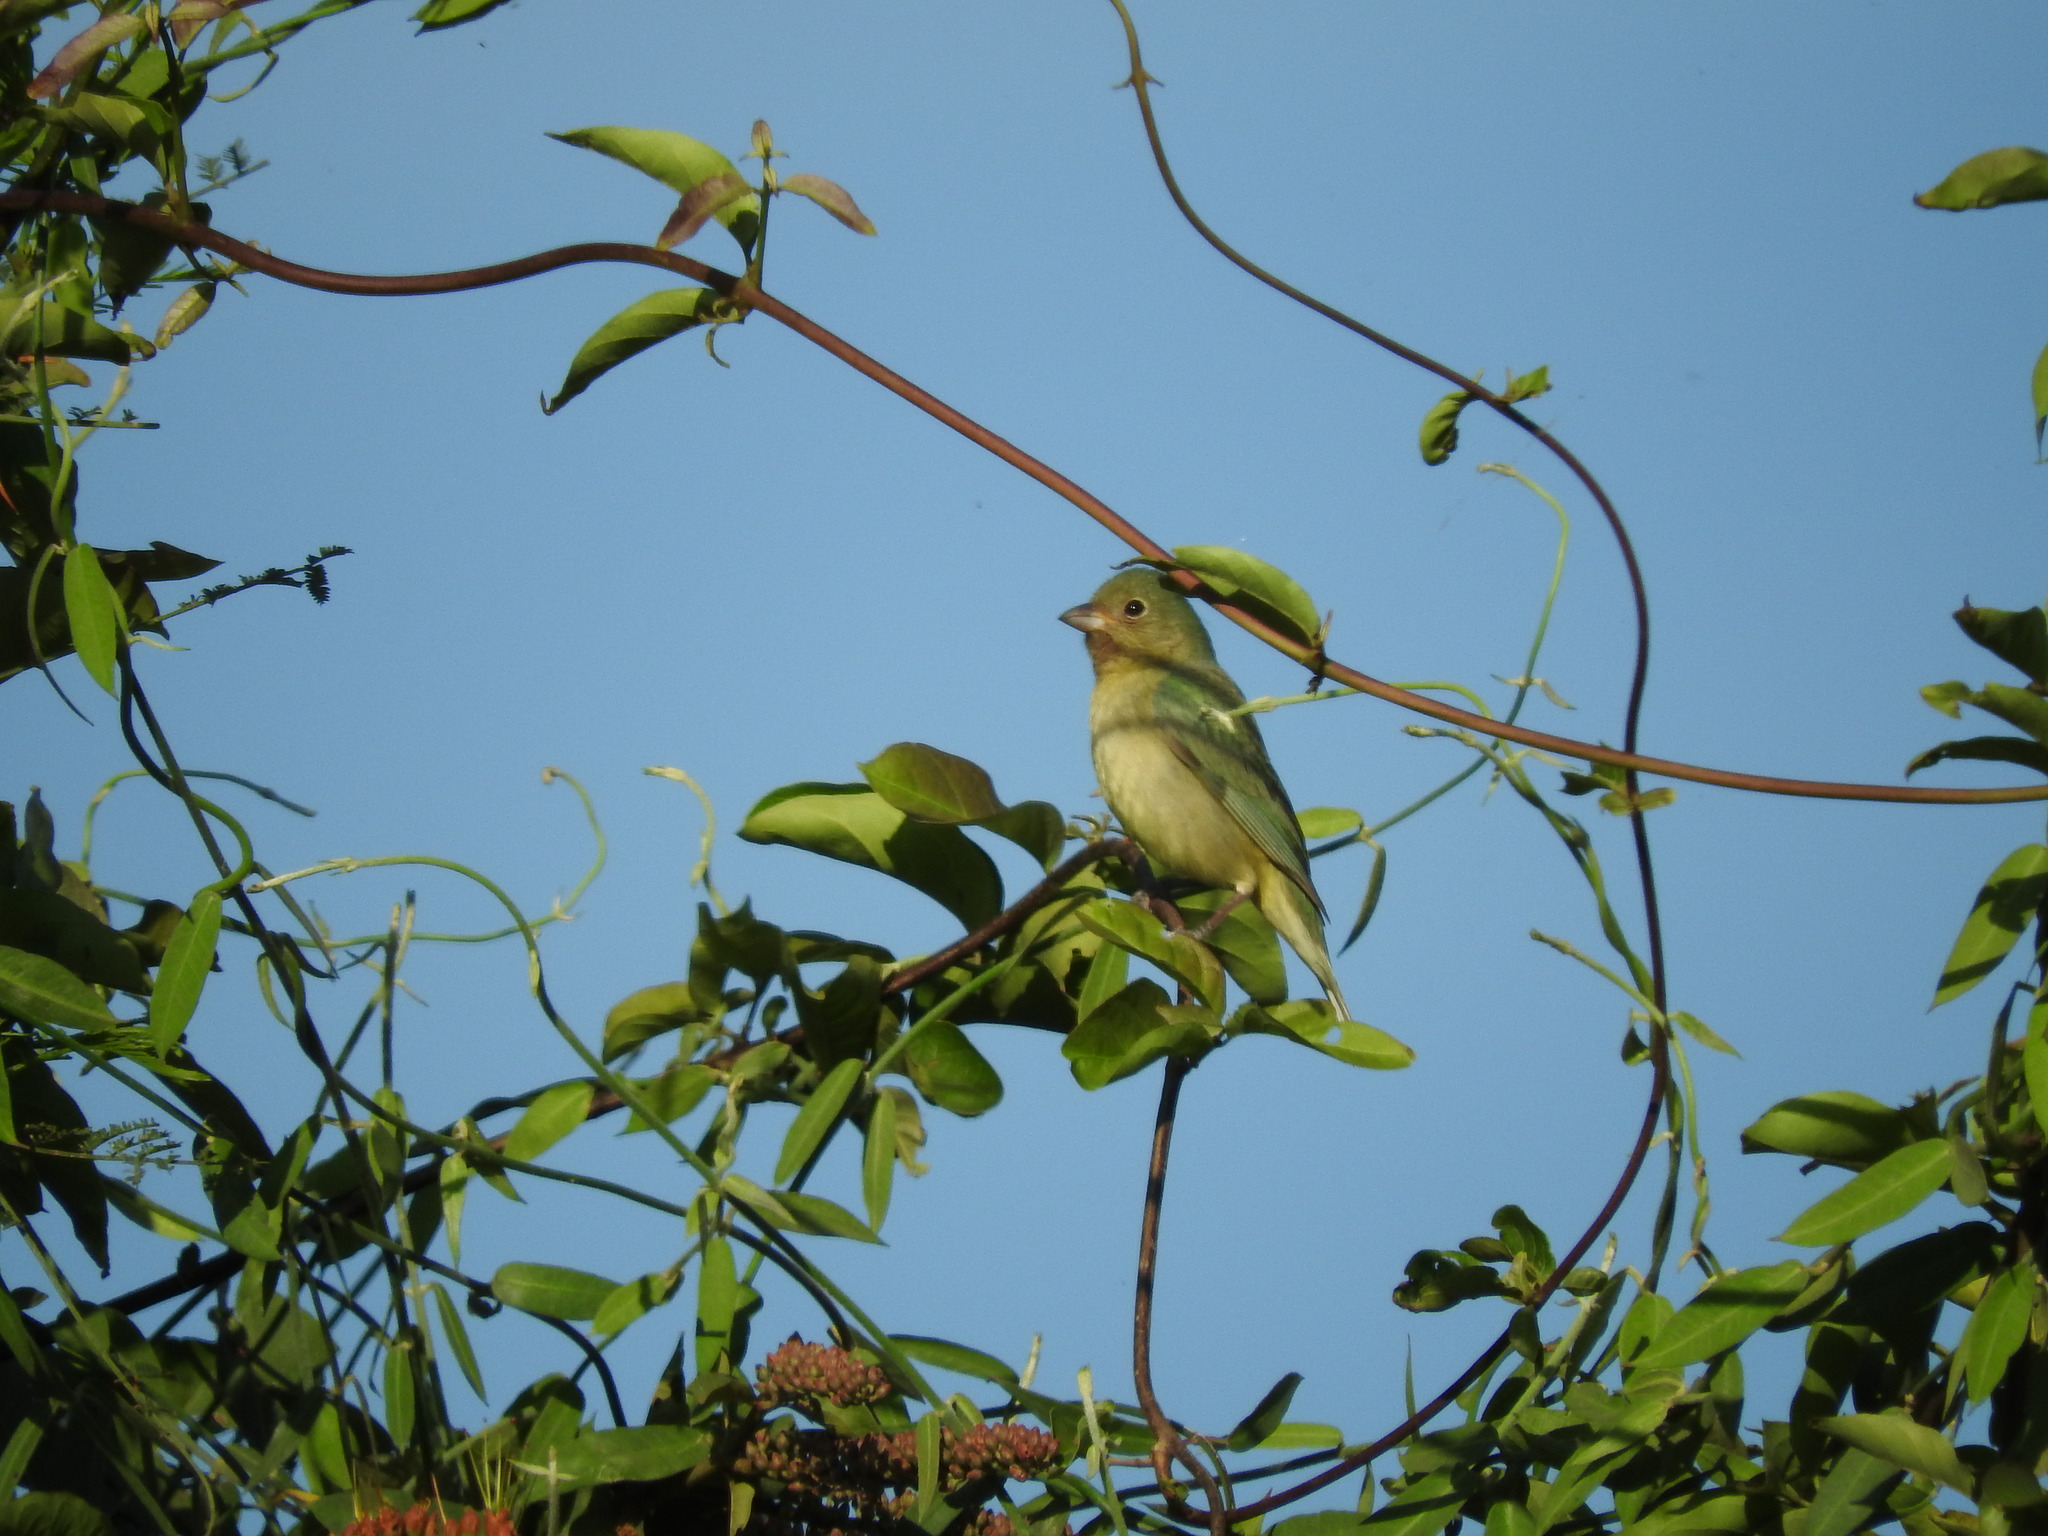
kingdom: Animalia
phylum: Chordata
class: Aves
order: Passeriformes
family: Cardinalidae
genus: Passerina
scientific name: Passerina ciris
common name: Painted bunting
